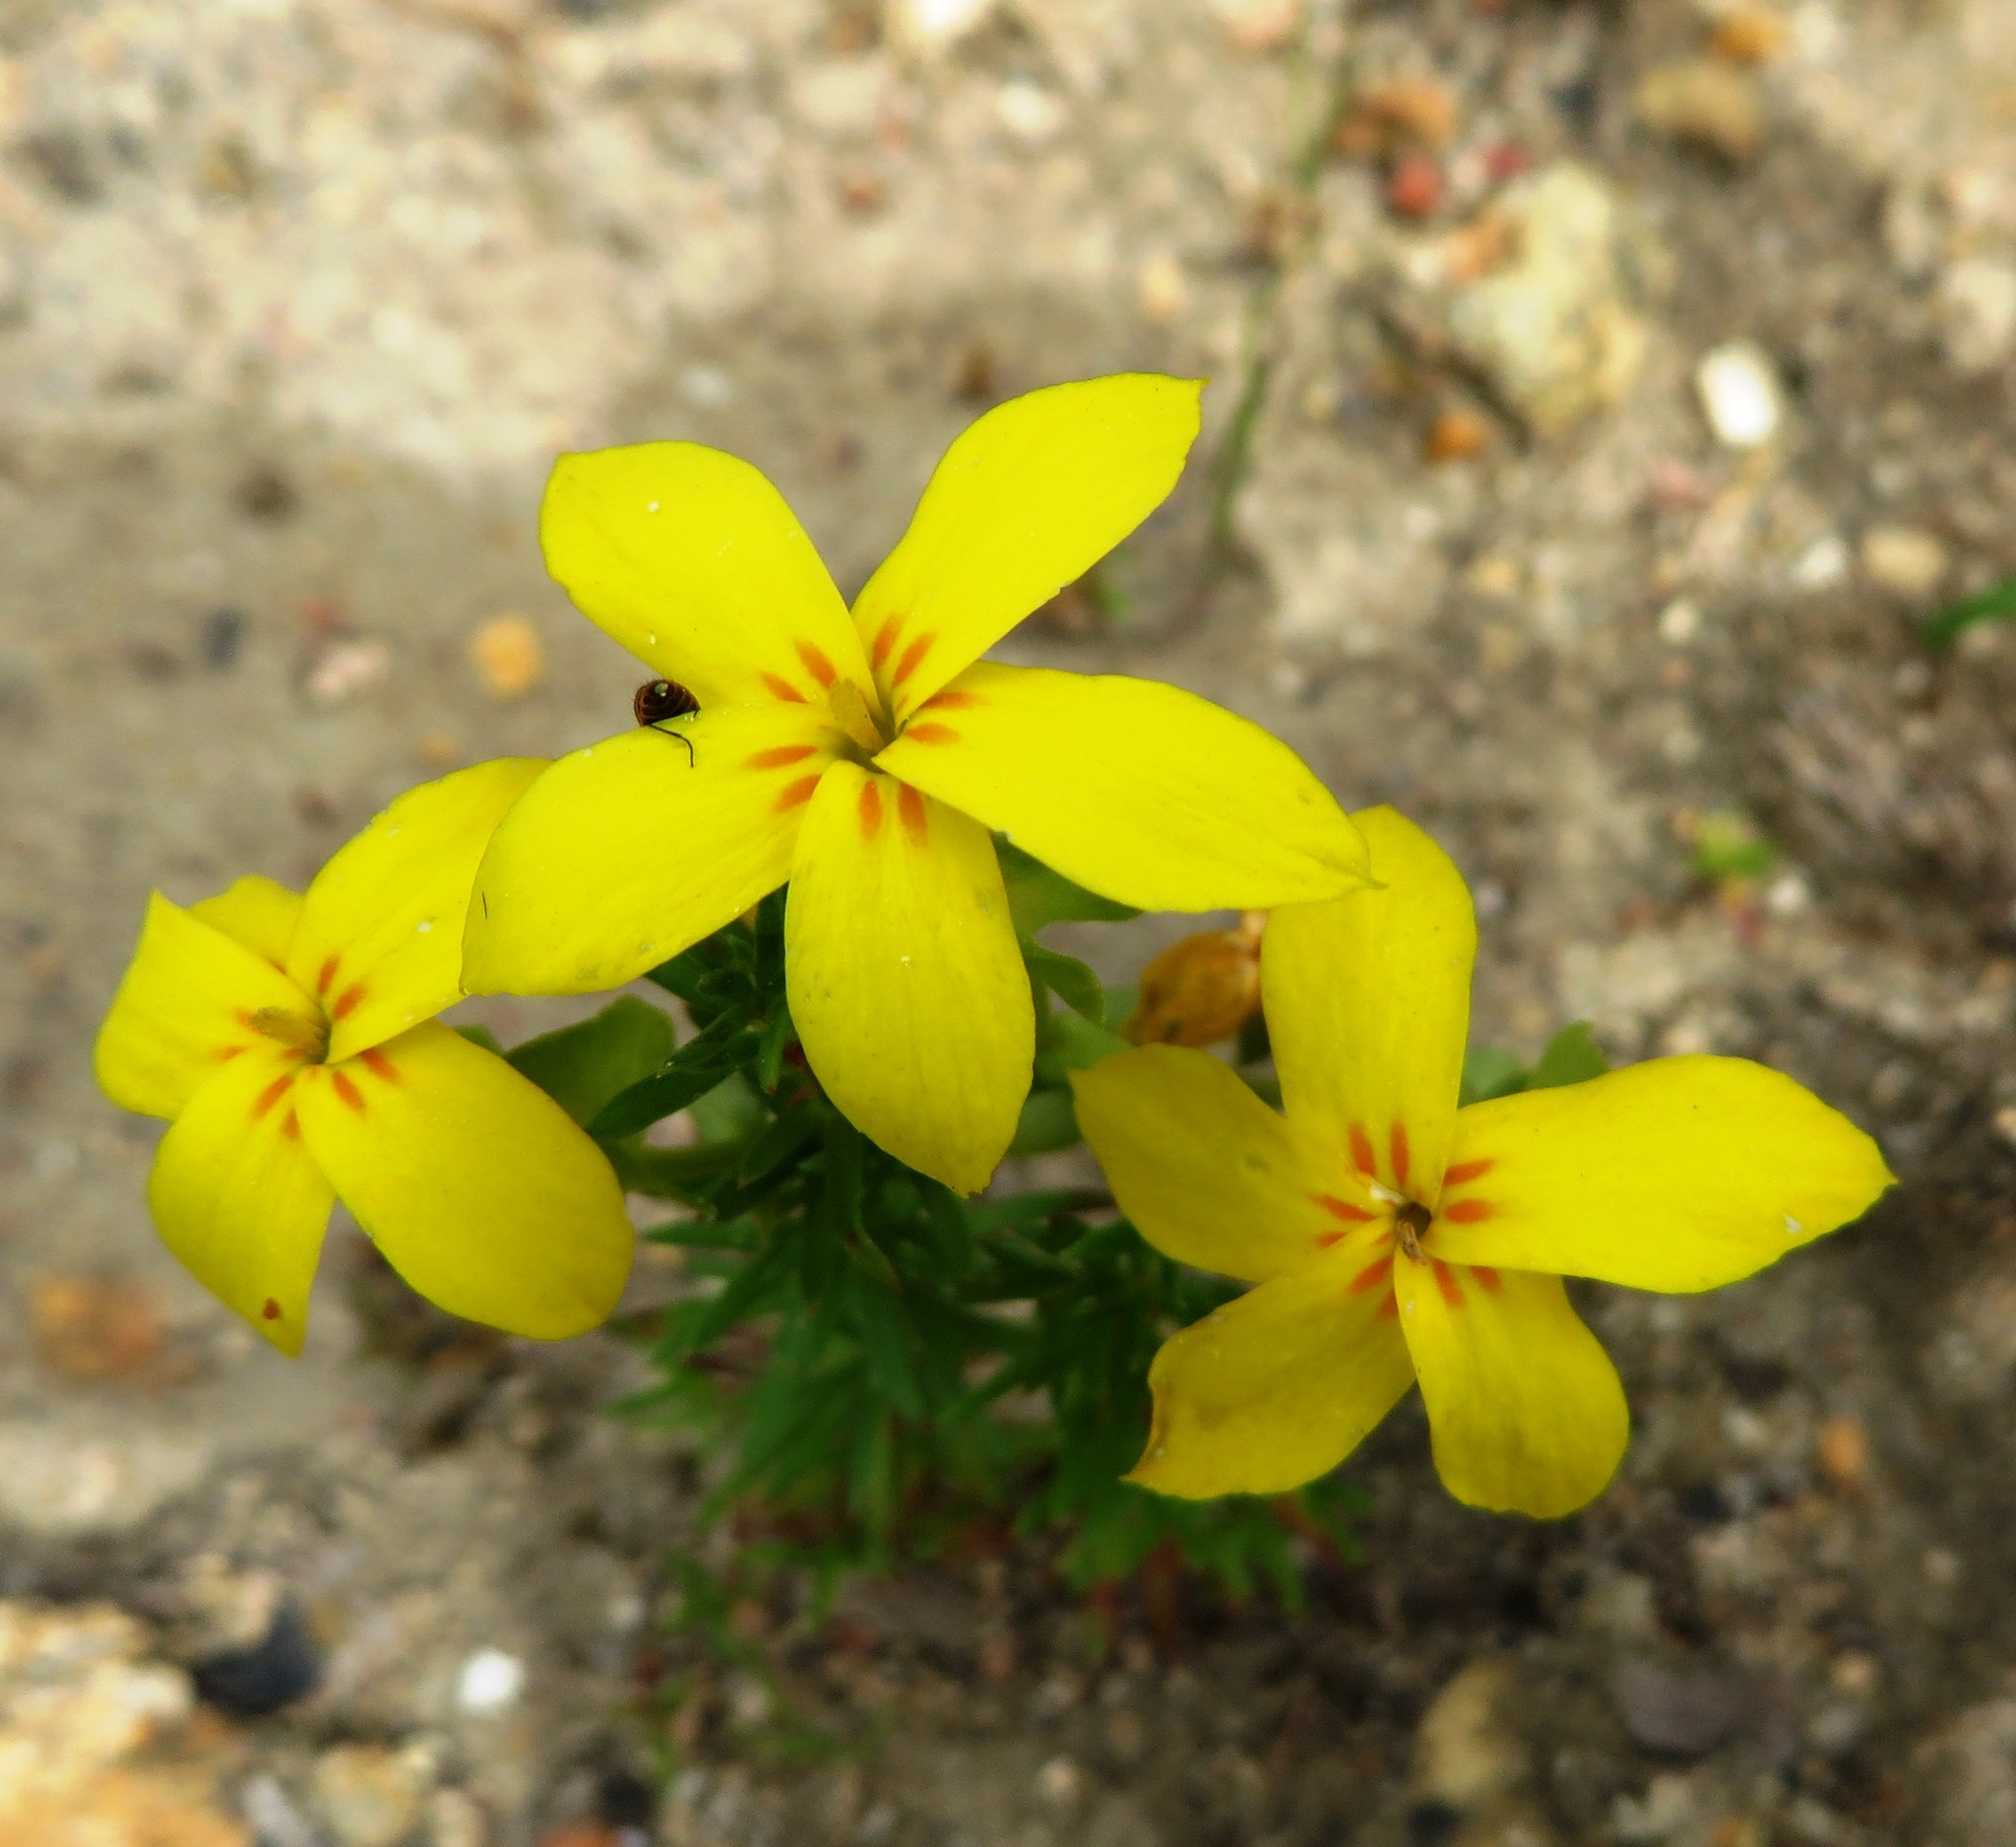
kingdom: Plantae
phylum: Tracheophyta
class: Magnoliopsida
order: Gentianales
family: Gentianaceae
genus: Sebaea
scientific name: Sebaea exacoides
